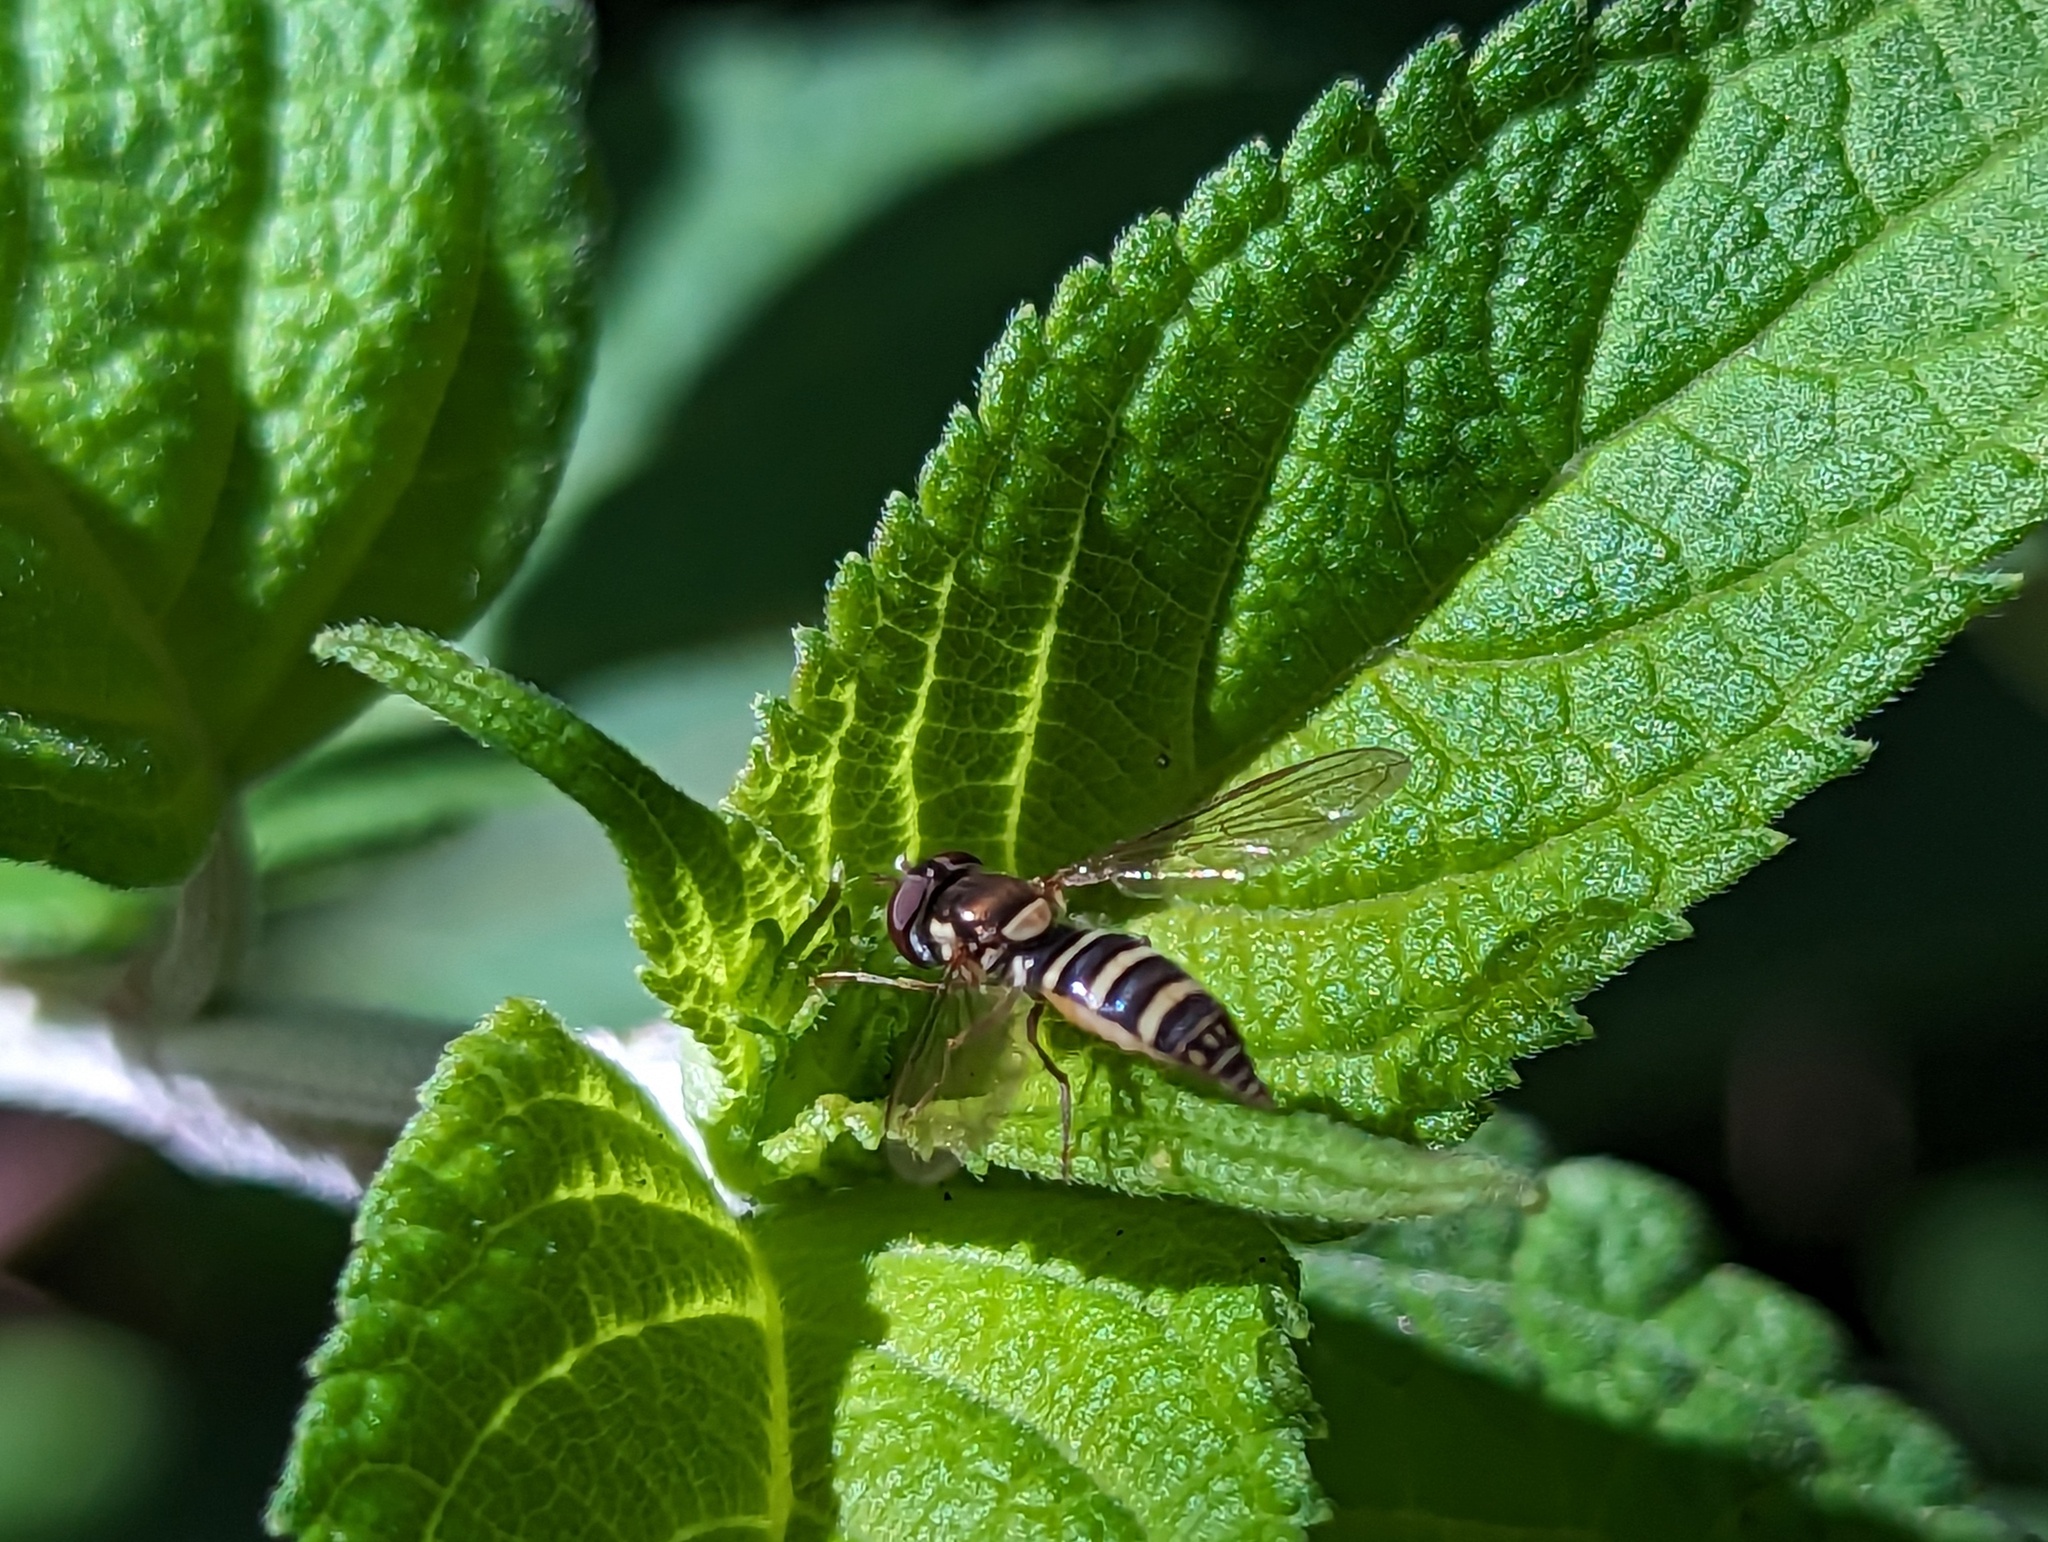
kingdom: Animalia
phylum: Arthropoda
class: Insecta
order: Diptera
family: Syrphidae
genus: Fazia
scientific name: Fazia micrura
